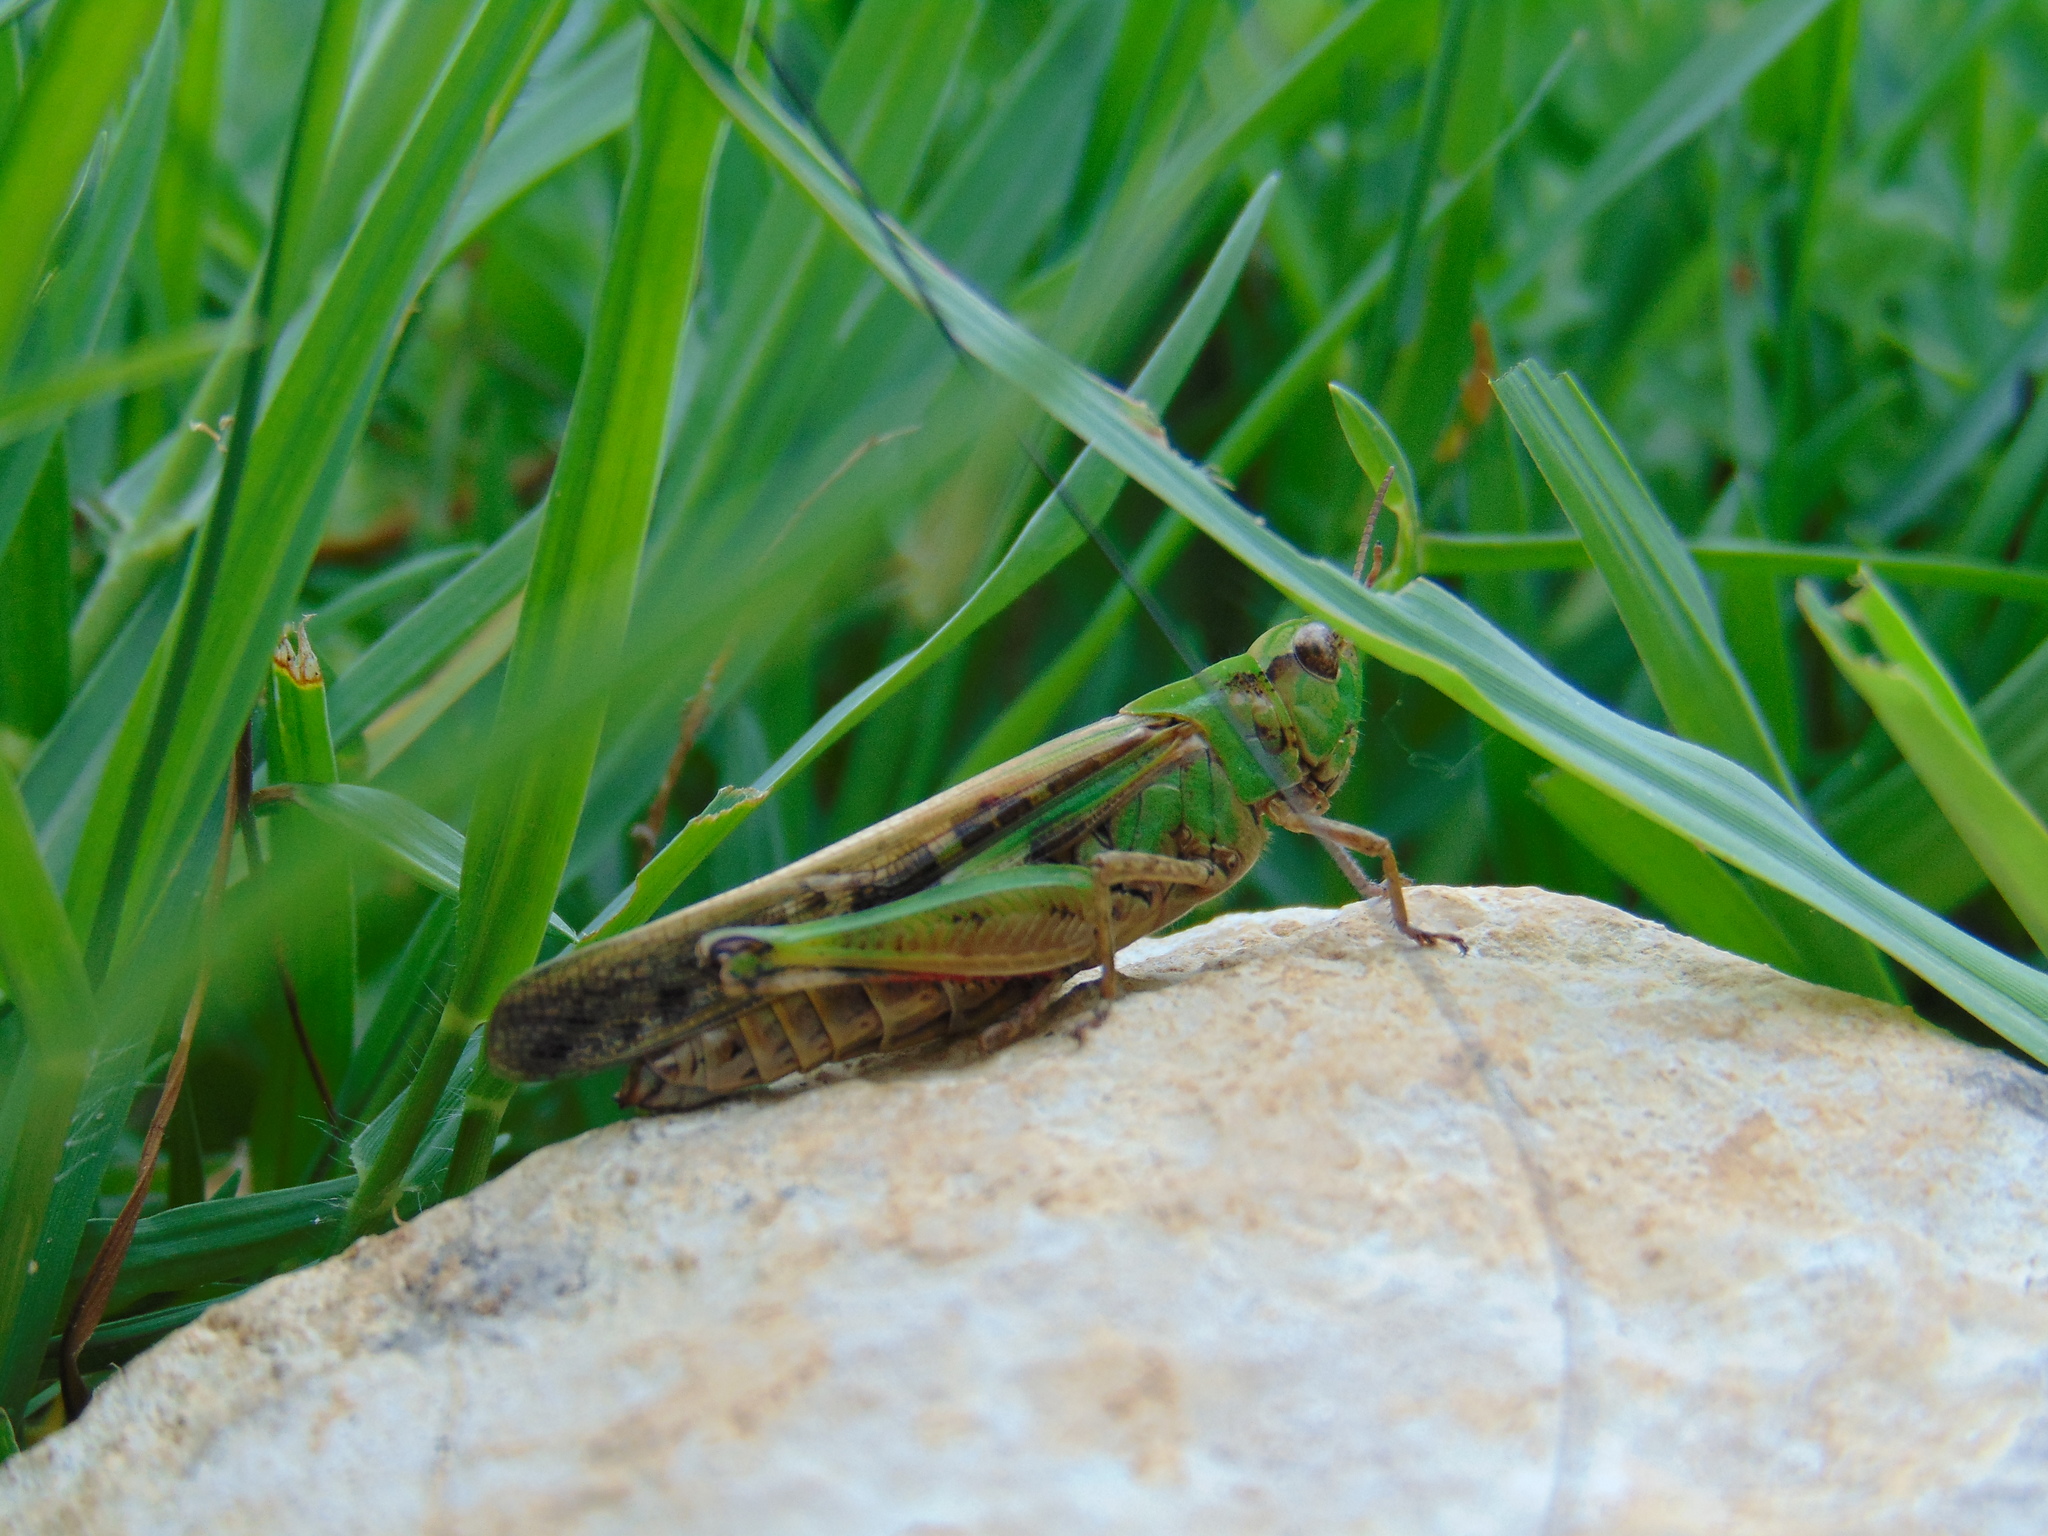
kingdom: Animalia
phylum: Arthropoda
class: Insecta
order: Orthoptera
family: Acrididae
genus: Aiolopus
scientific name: Aiolopus thalassinus
